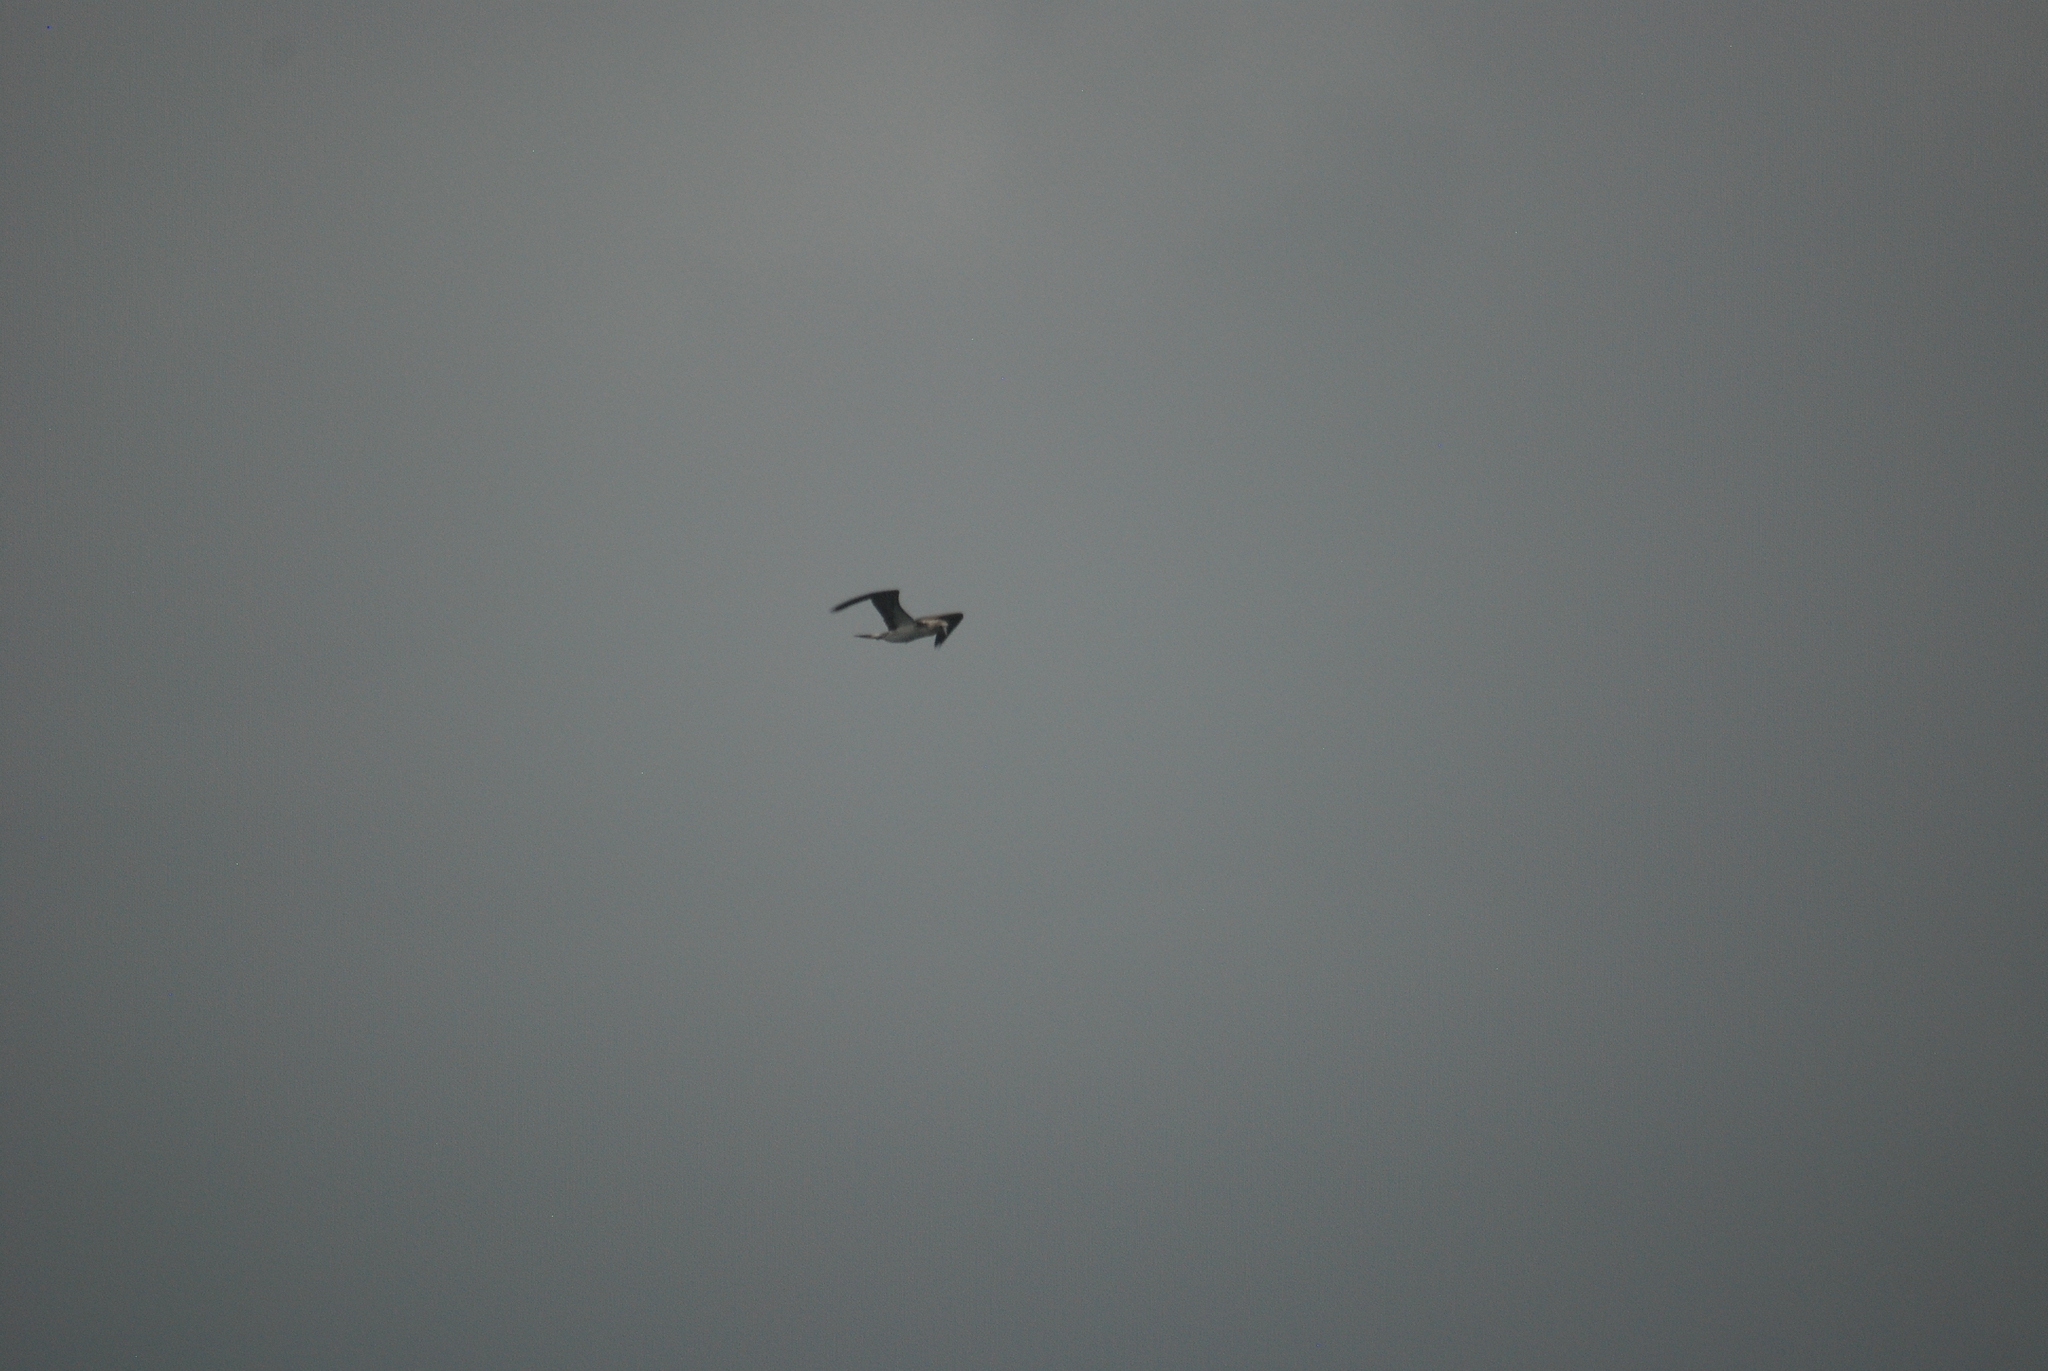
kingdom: Animalia
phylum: Chordata
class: Aves
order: Suliformes
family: Sulidae
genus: Sula
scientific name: Sula nebouxii
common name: Blue-footed booby
